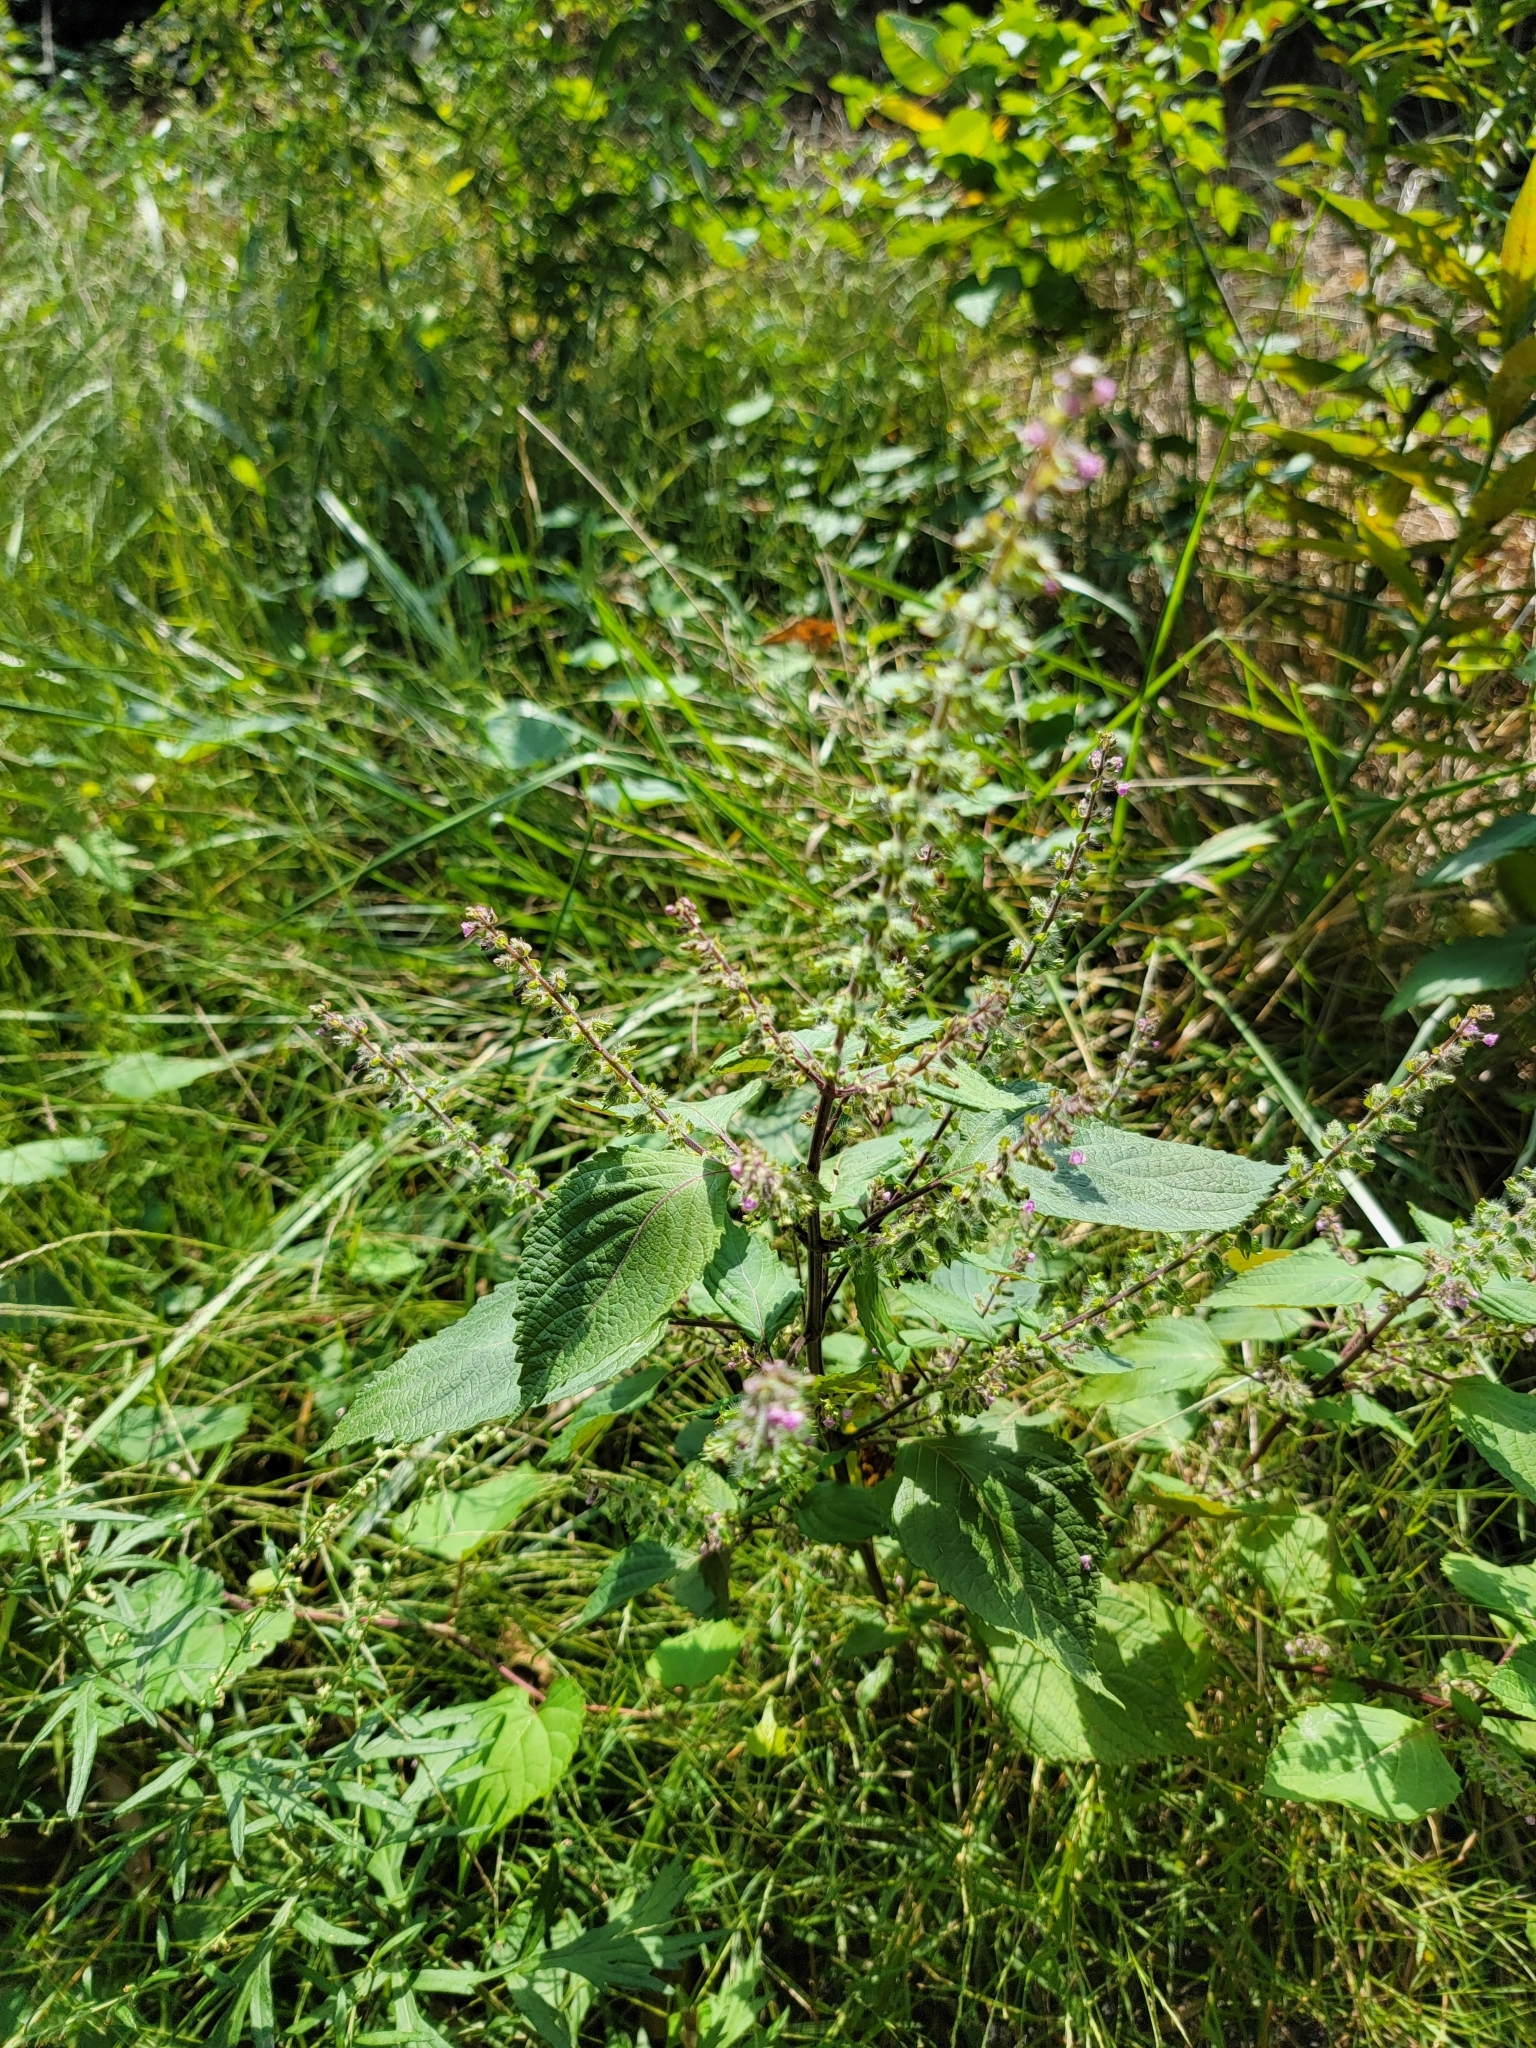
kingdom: Plantae
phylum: Tracheophyta
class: Magnoliopsida
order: Lamiales
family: Lamiaceae
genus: Perilla
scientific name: Perilla frutescens
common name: Perilla
